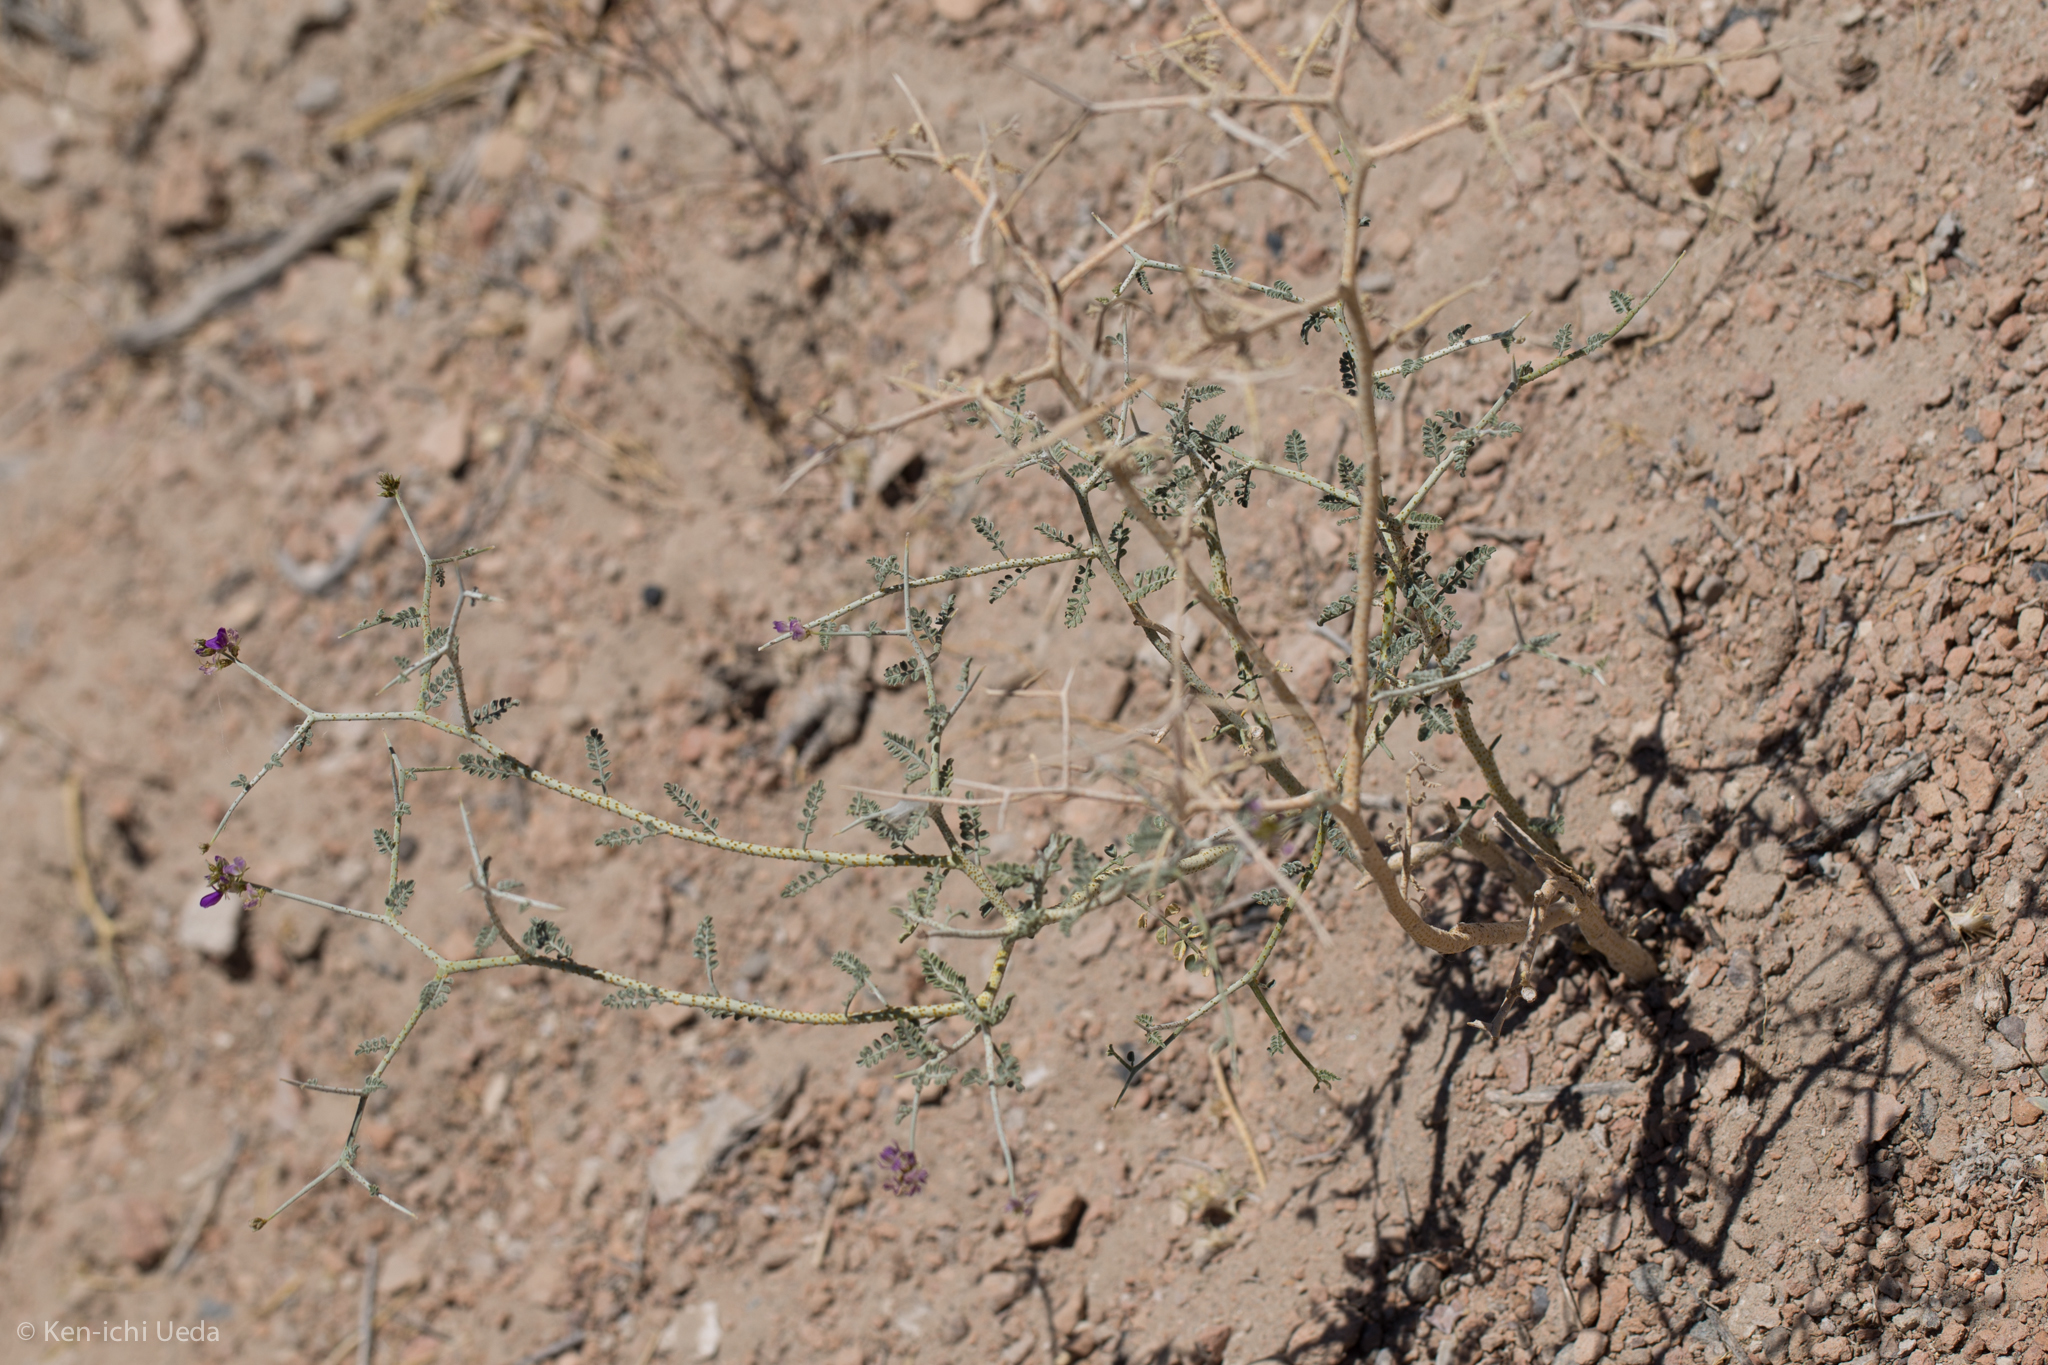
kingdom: Plantae
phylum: Tracheophyta
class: Magnoliopsida
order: Fabales
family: Fabaceae
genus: Psorothamnus
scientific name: Psorothamnus polydenius
